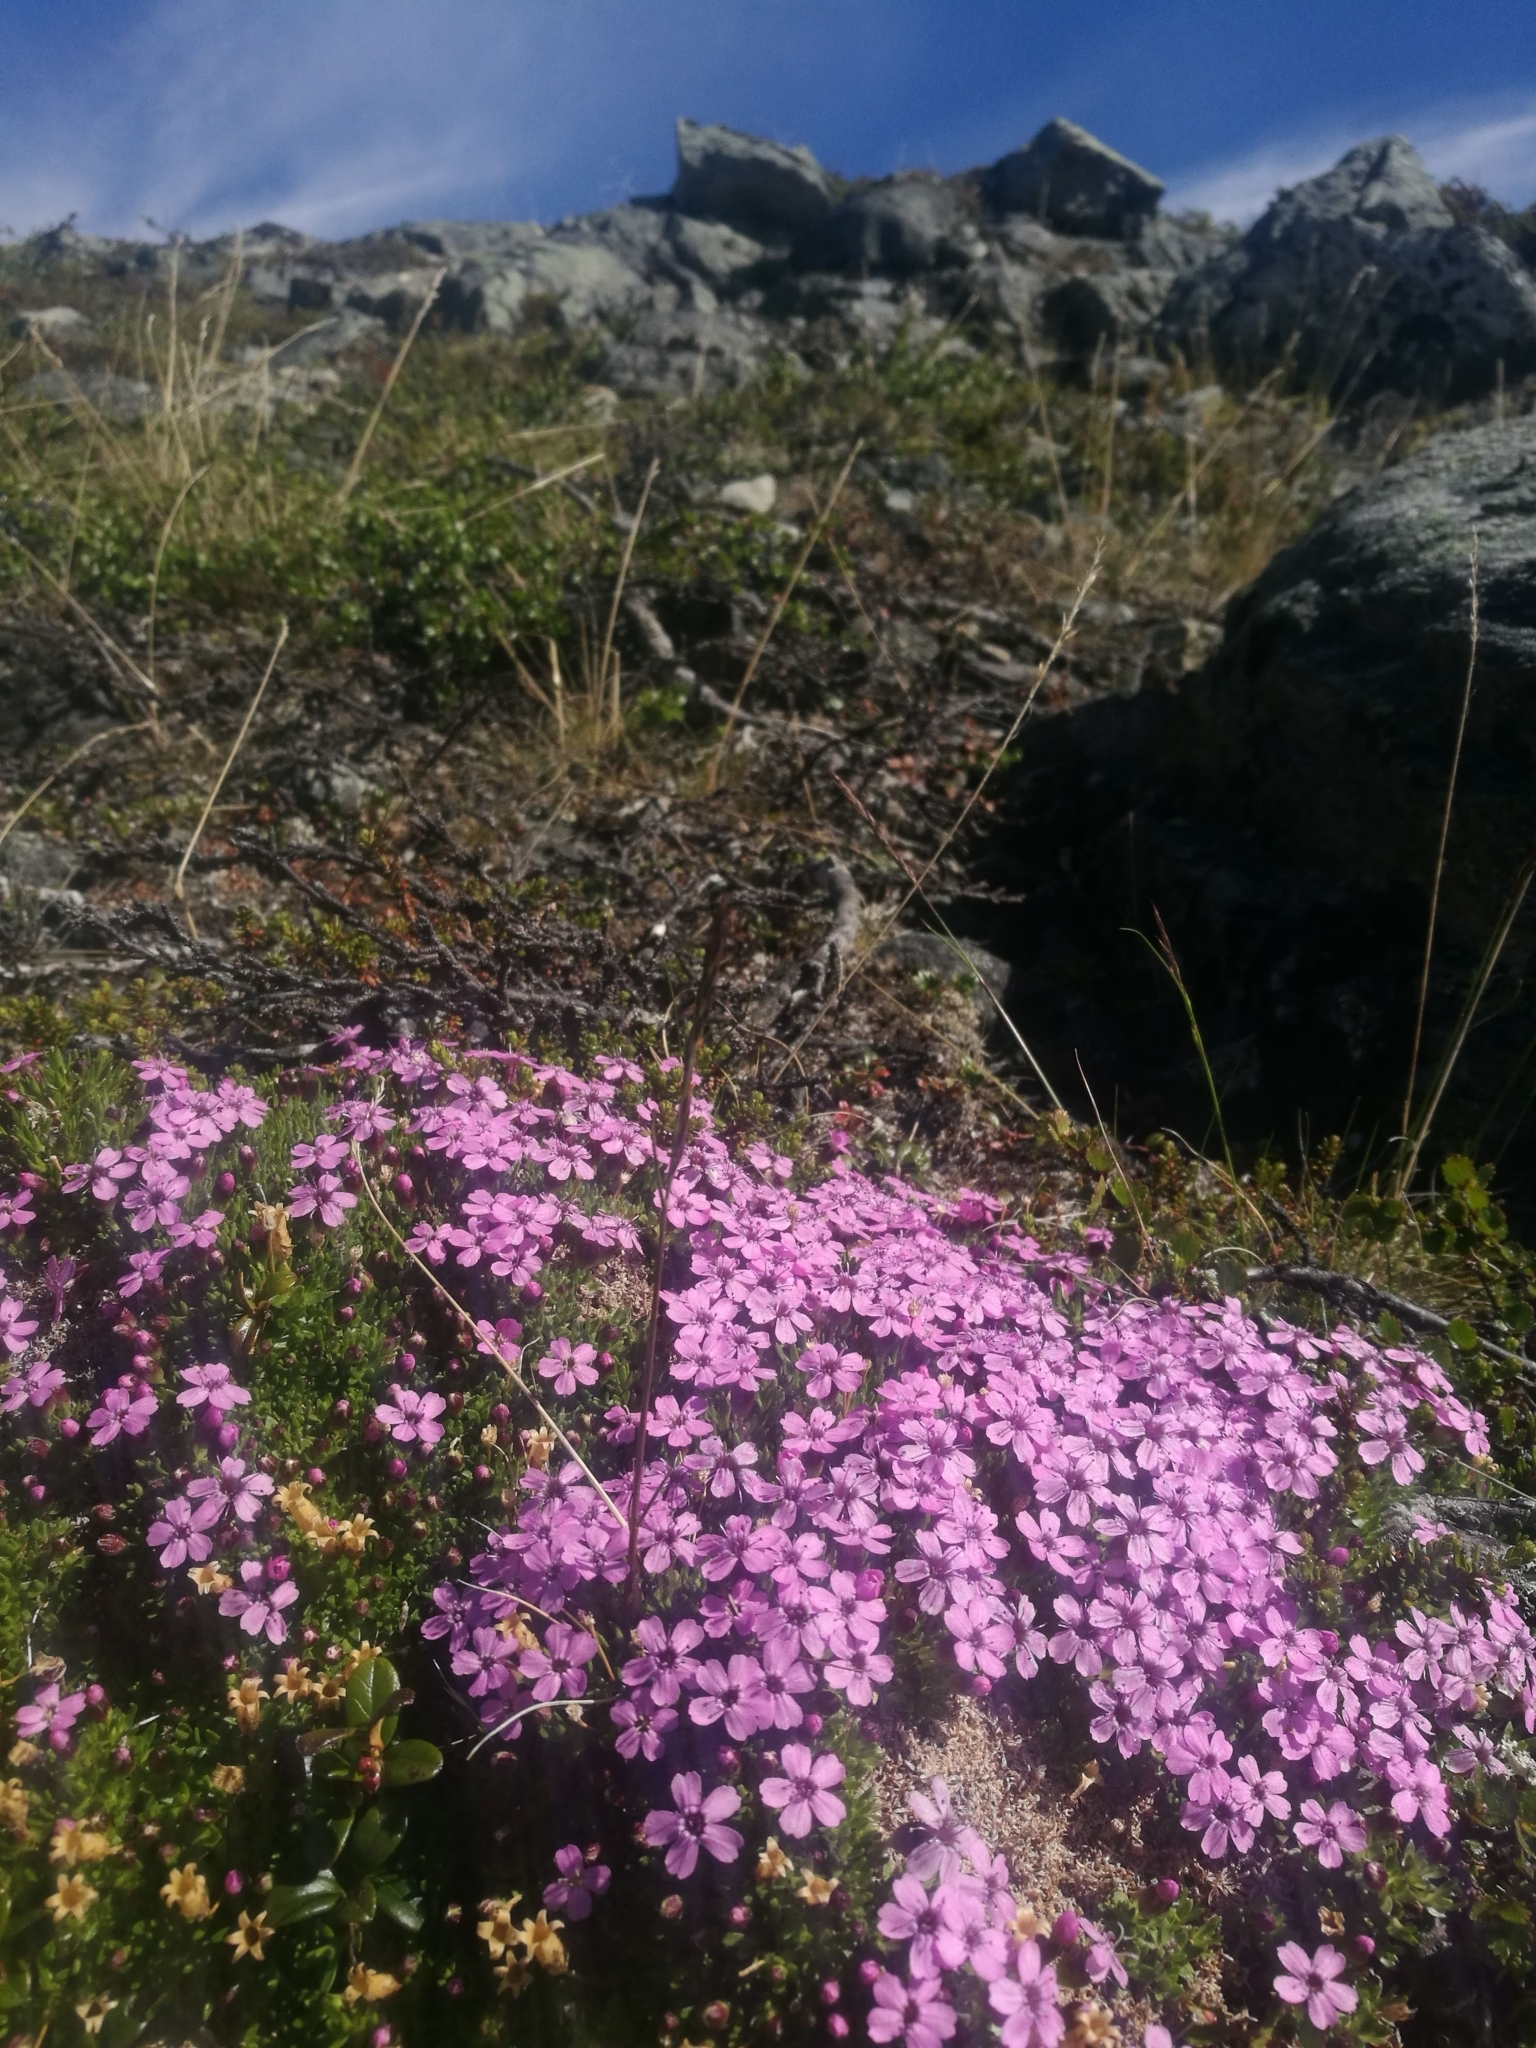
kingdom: Plantae
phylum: Tracheophyta
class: Magnoliopsida
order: Caryophyllales
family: Caryophyllaceae
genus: Silene
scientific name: Silene acaulis
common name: Moss campion
